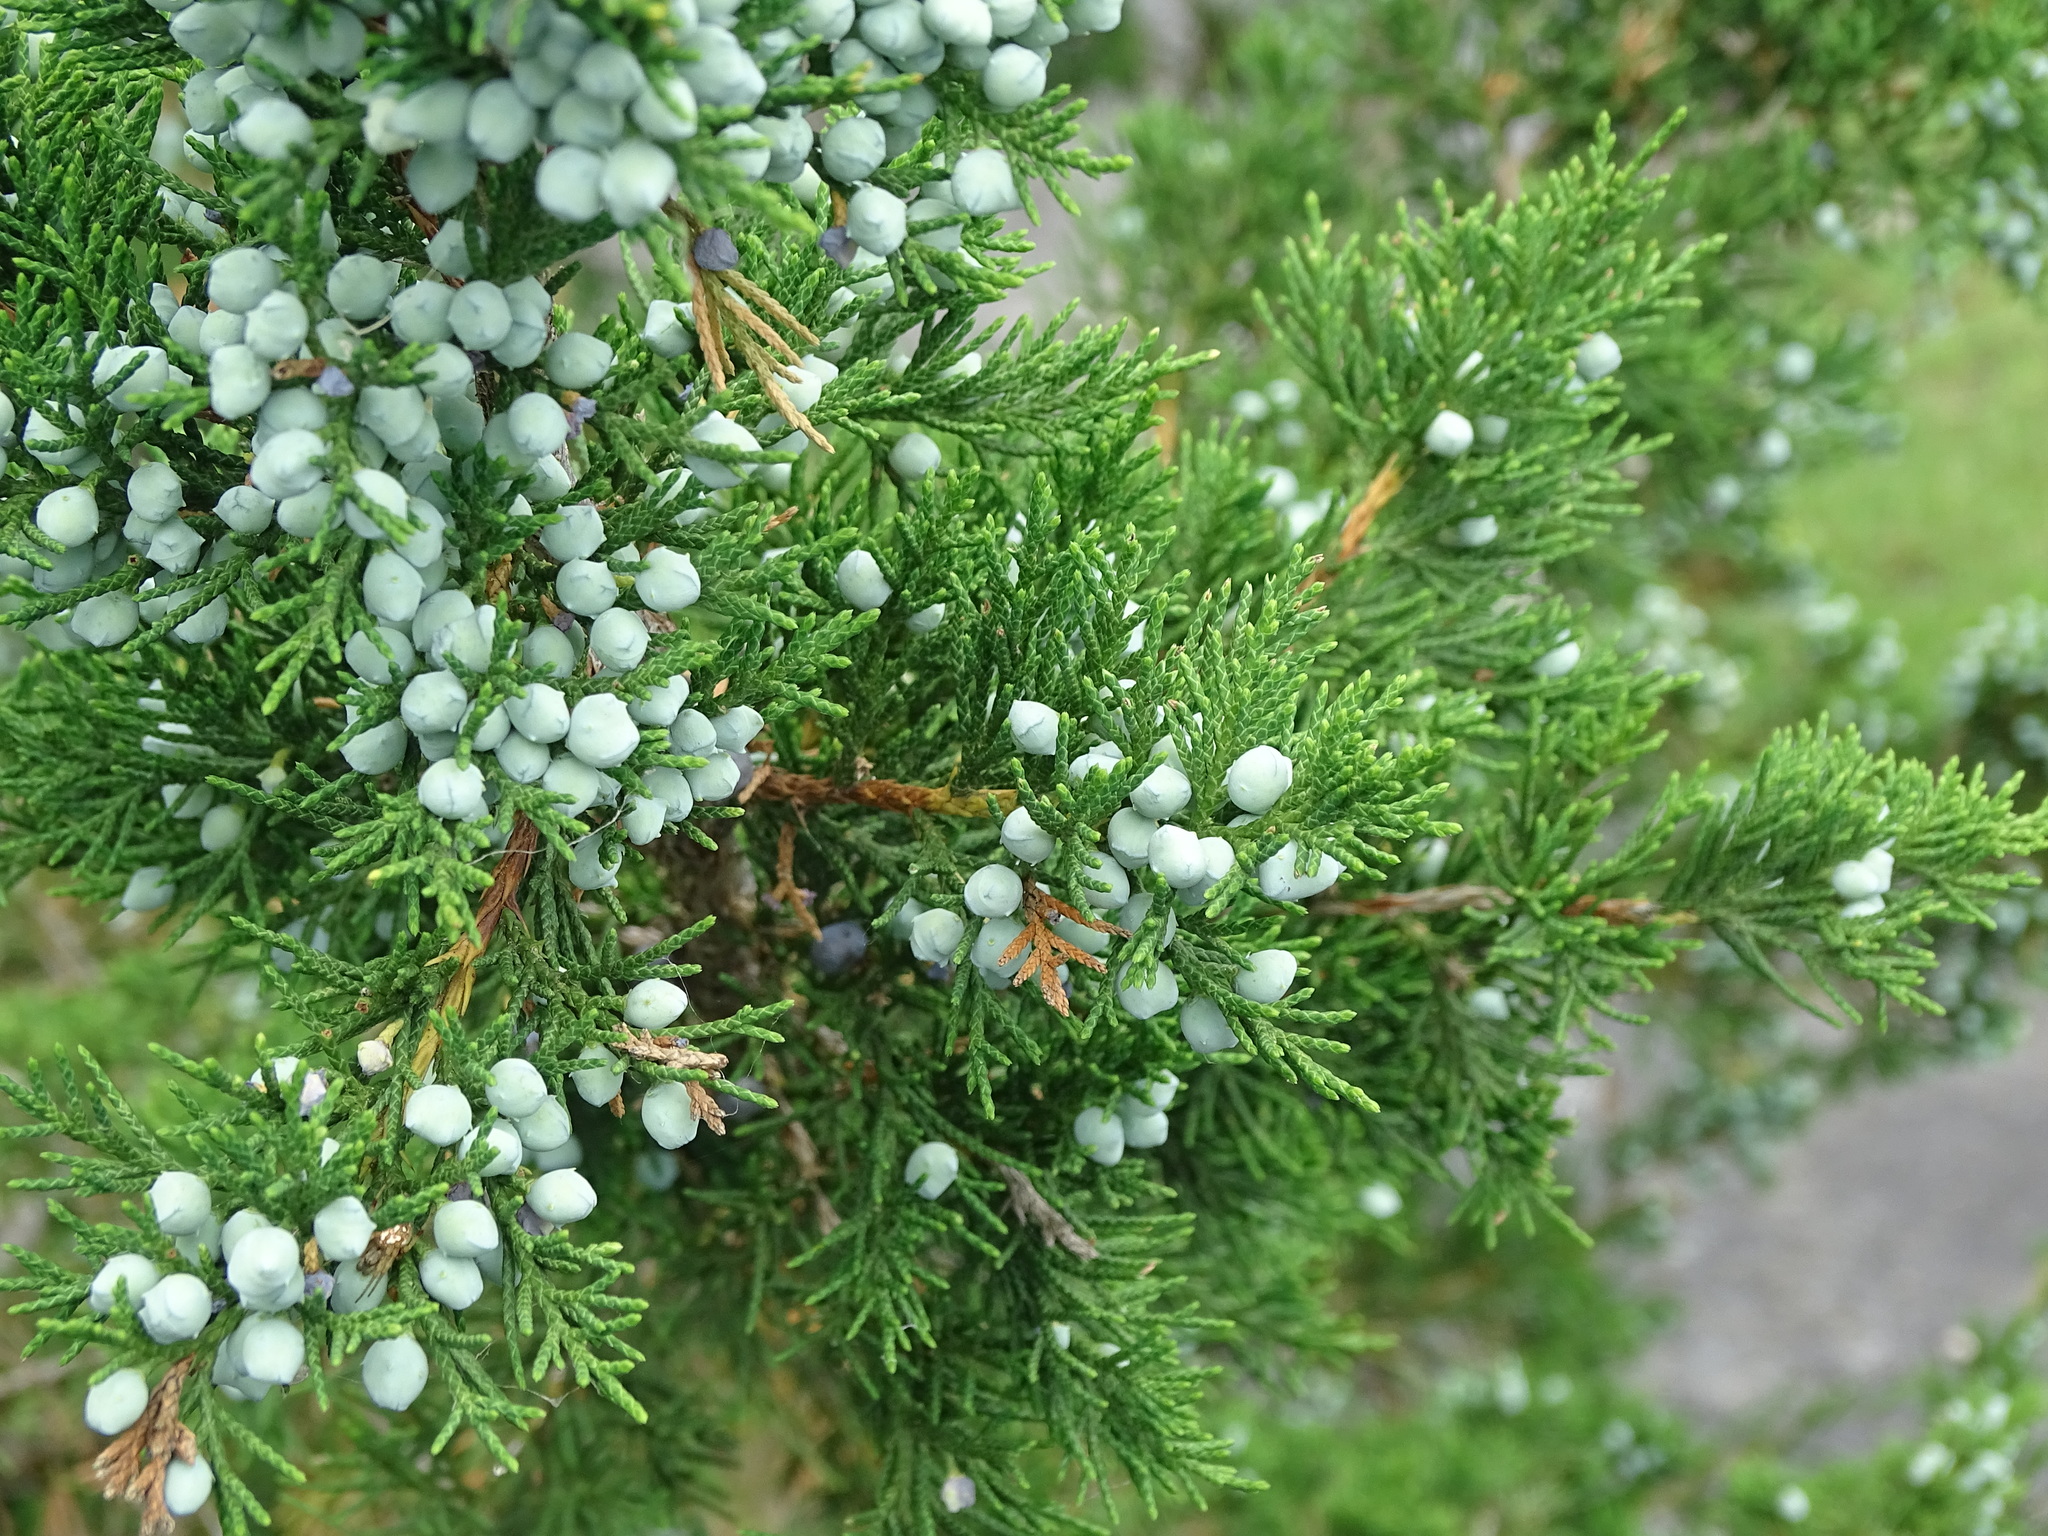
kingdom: Plantae
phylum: Tracheophyta
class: Pinopsida
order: Pinales
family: Cupressaceae
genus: Juniperus
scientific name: Juniperus virginiana
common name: Red juniper
